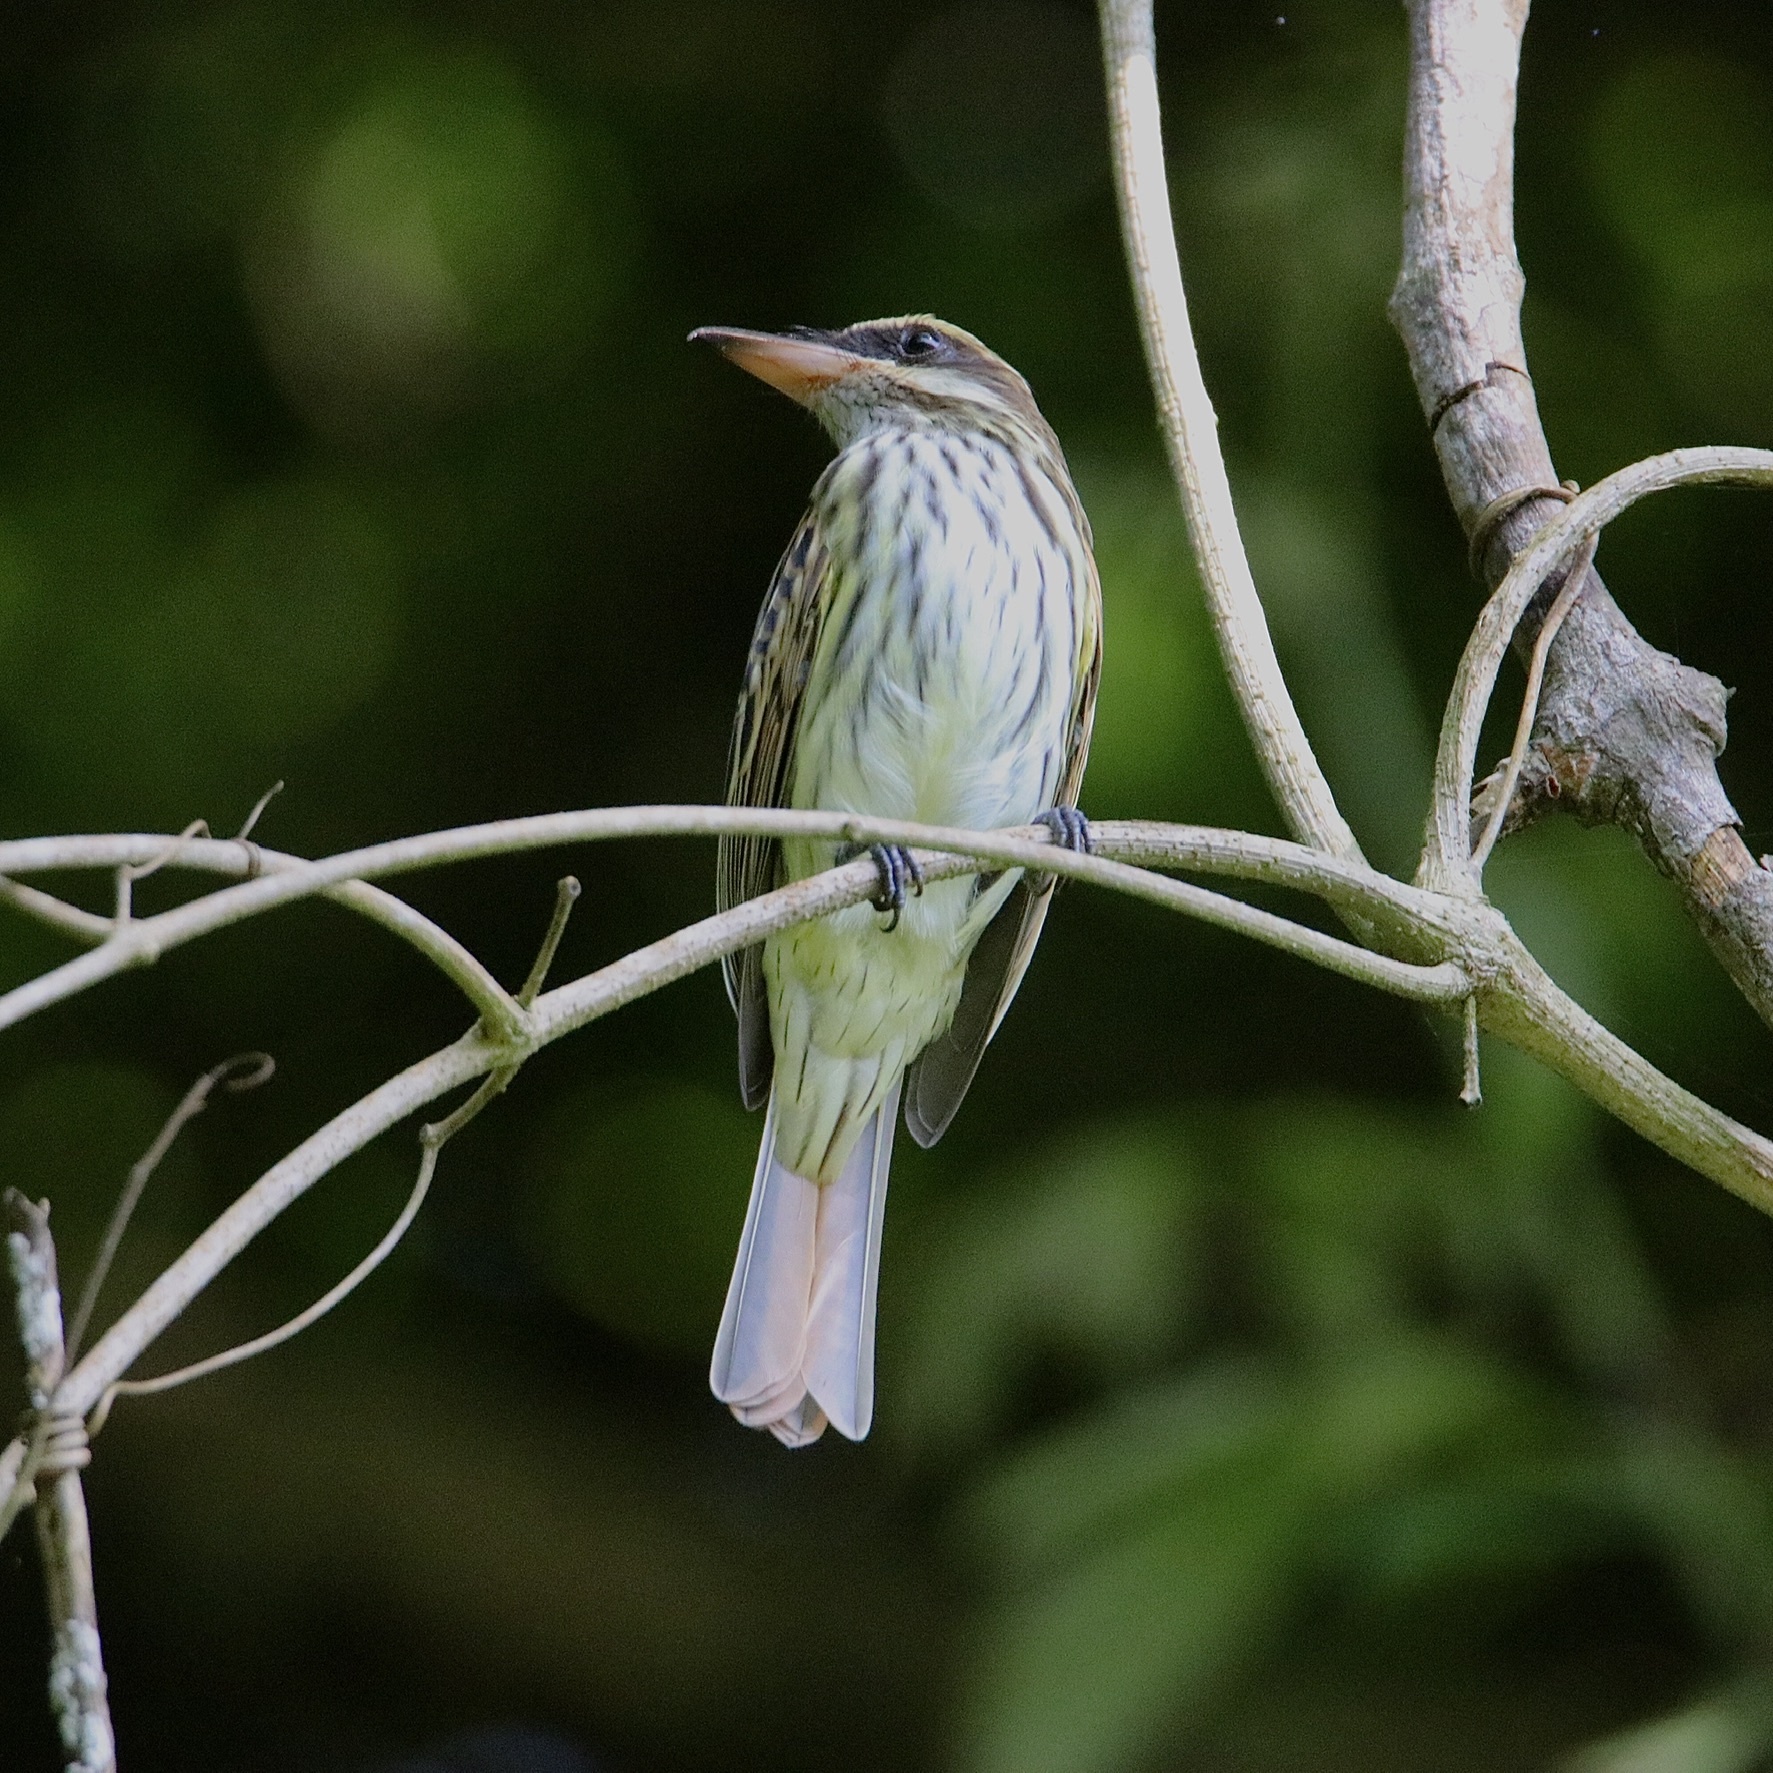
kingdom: Animalia
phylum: Chordata
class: Aves
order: Passeriformes
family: Tyrannidae
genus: Myiodynastes
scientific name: Myiodynastes maculatus
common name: Streaked flycatcher
